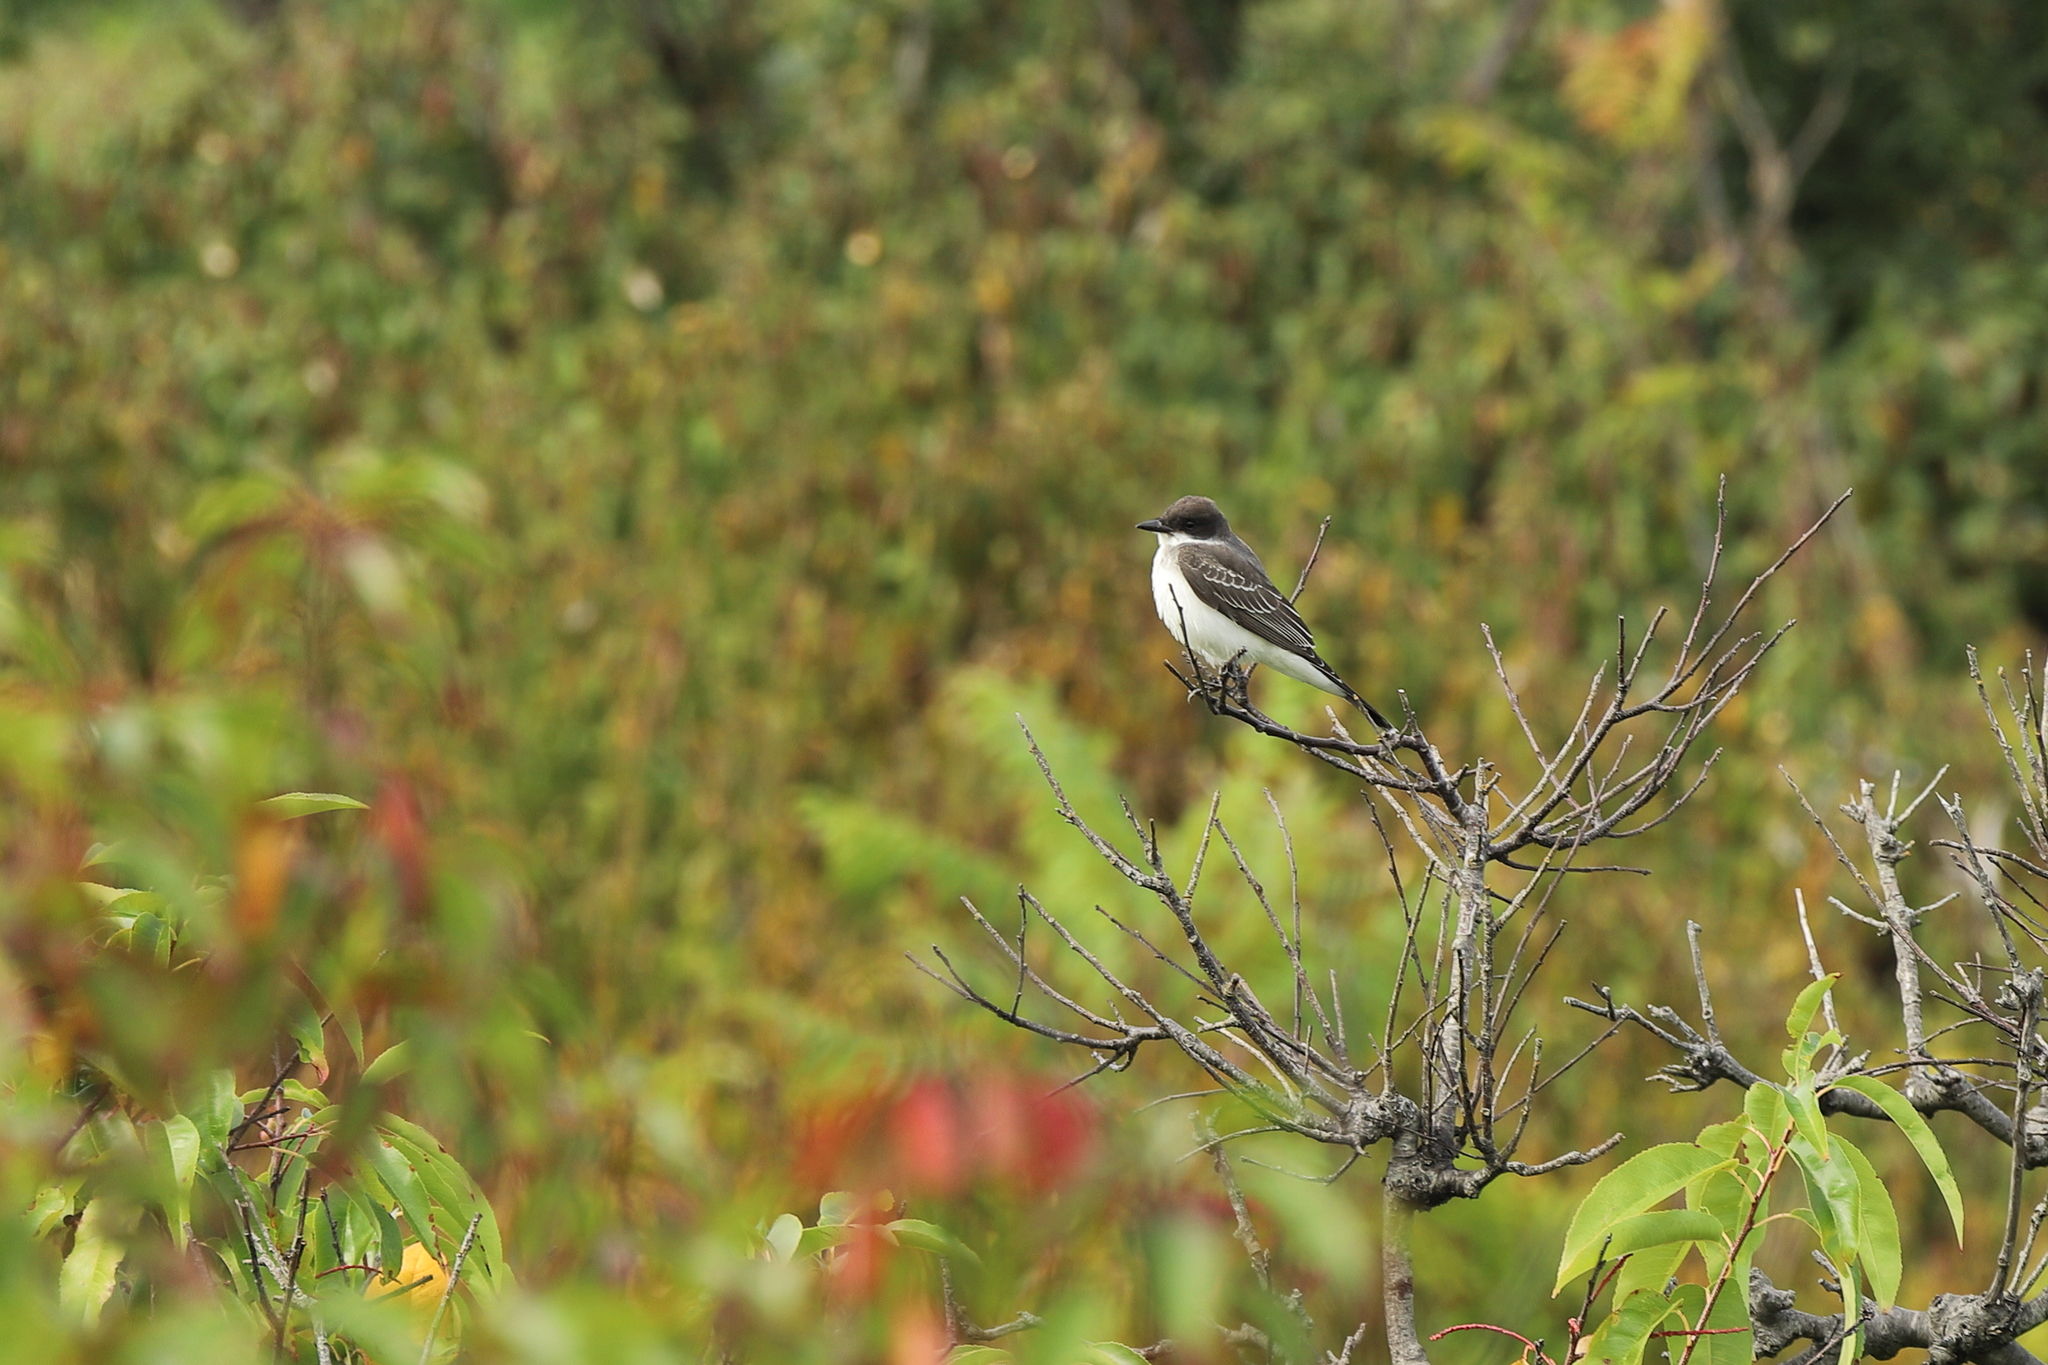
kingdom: Animalia
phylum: Chordata
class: Aves
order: Passeriformes
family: Tyrannidae
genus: Tyrannus
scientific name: Tyrannus tyrannus
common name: Eastern kingbird
